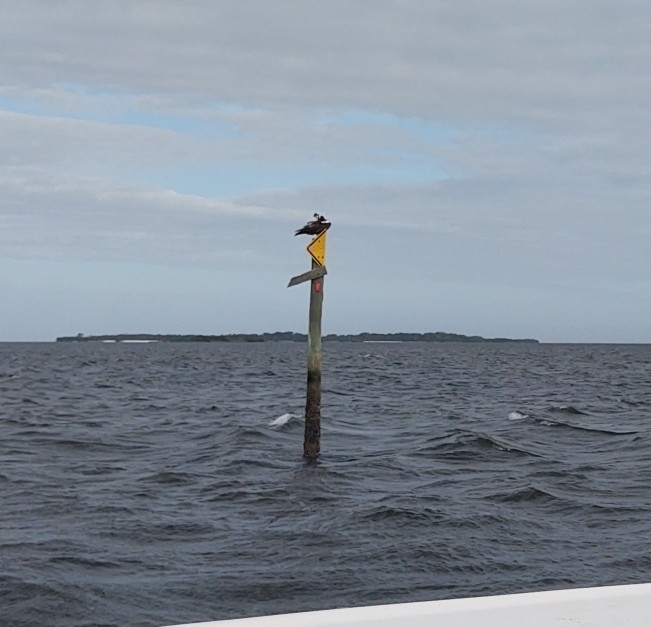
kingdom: Animalia
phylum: Chordata
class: Aves
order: Accipitriformes
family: Pandionidae
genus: Pandion
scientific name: Pandion haliaetus
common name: Osprey
